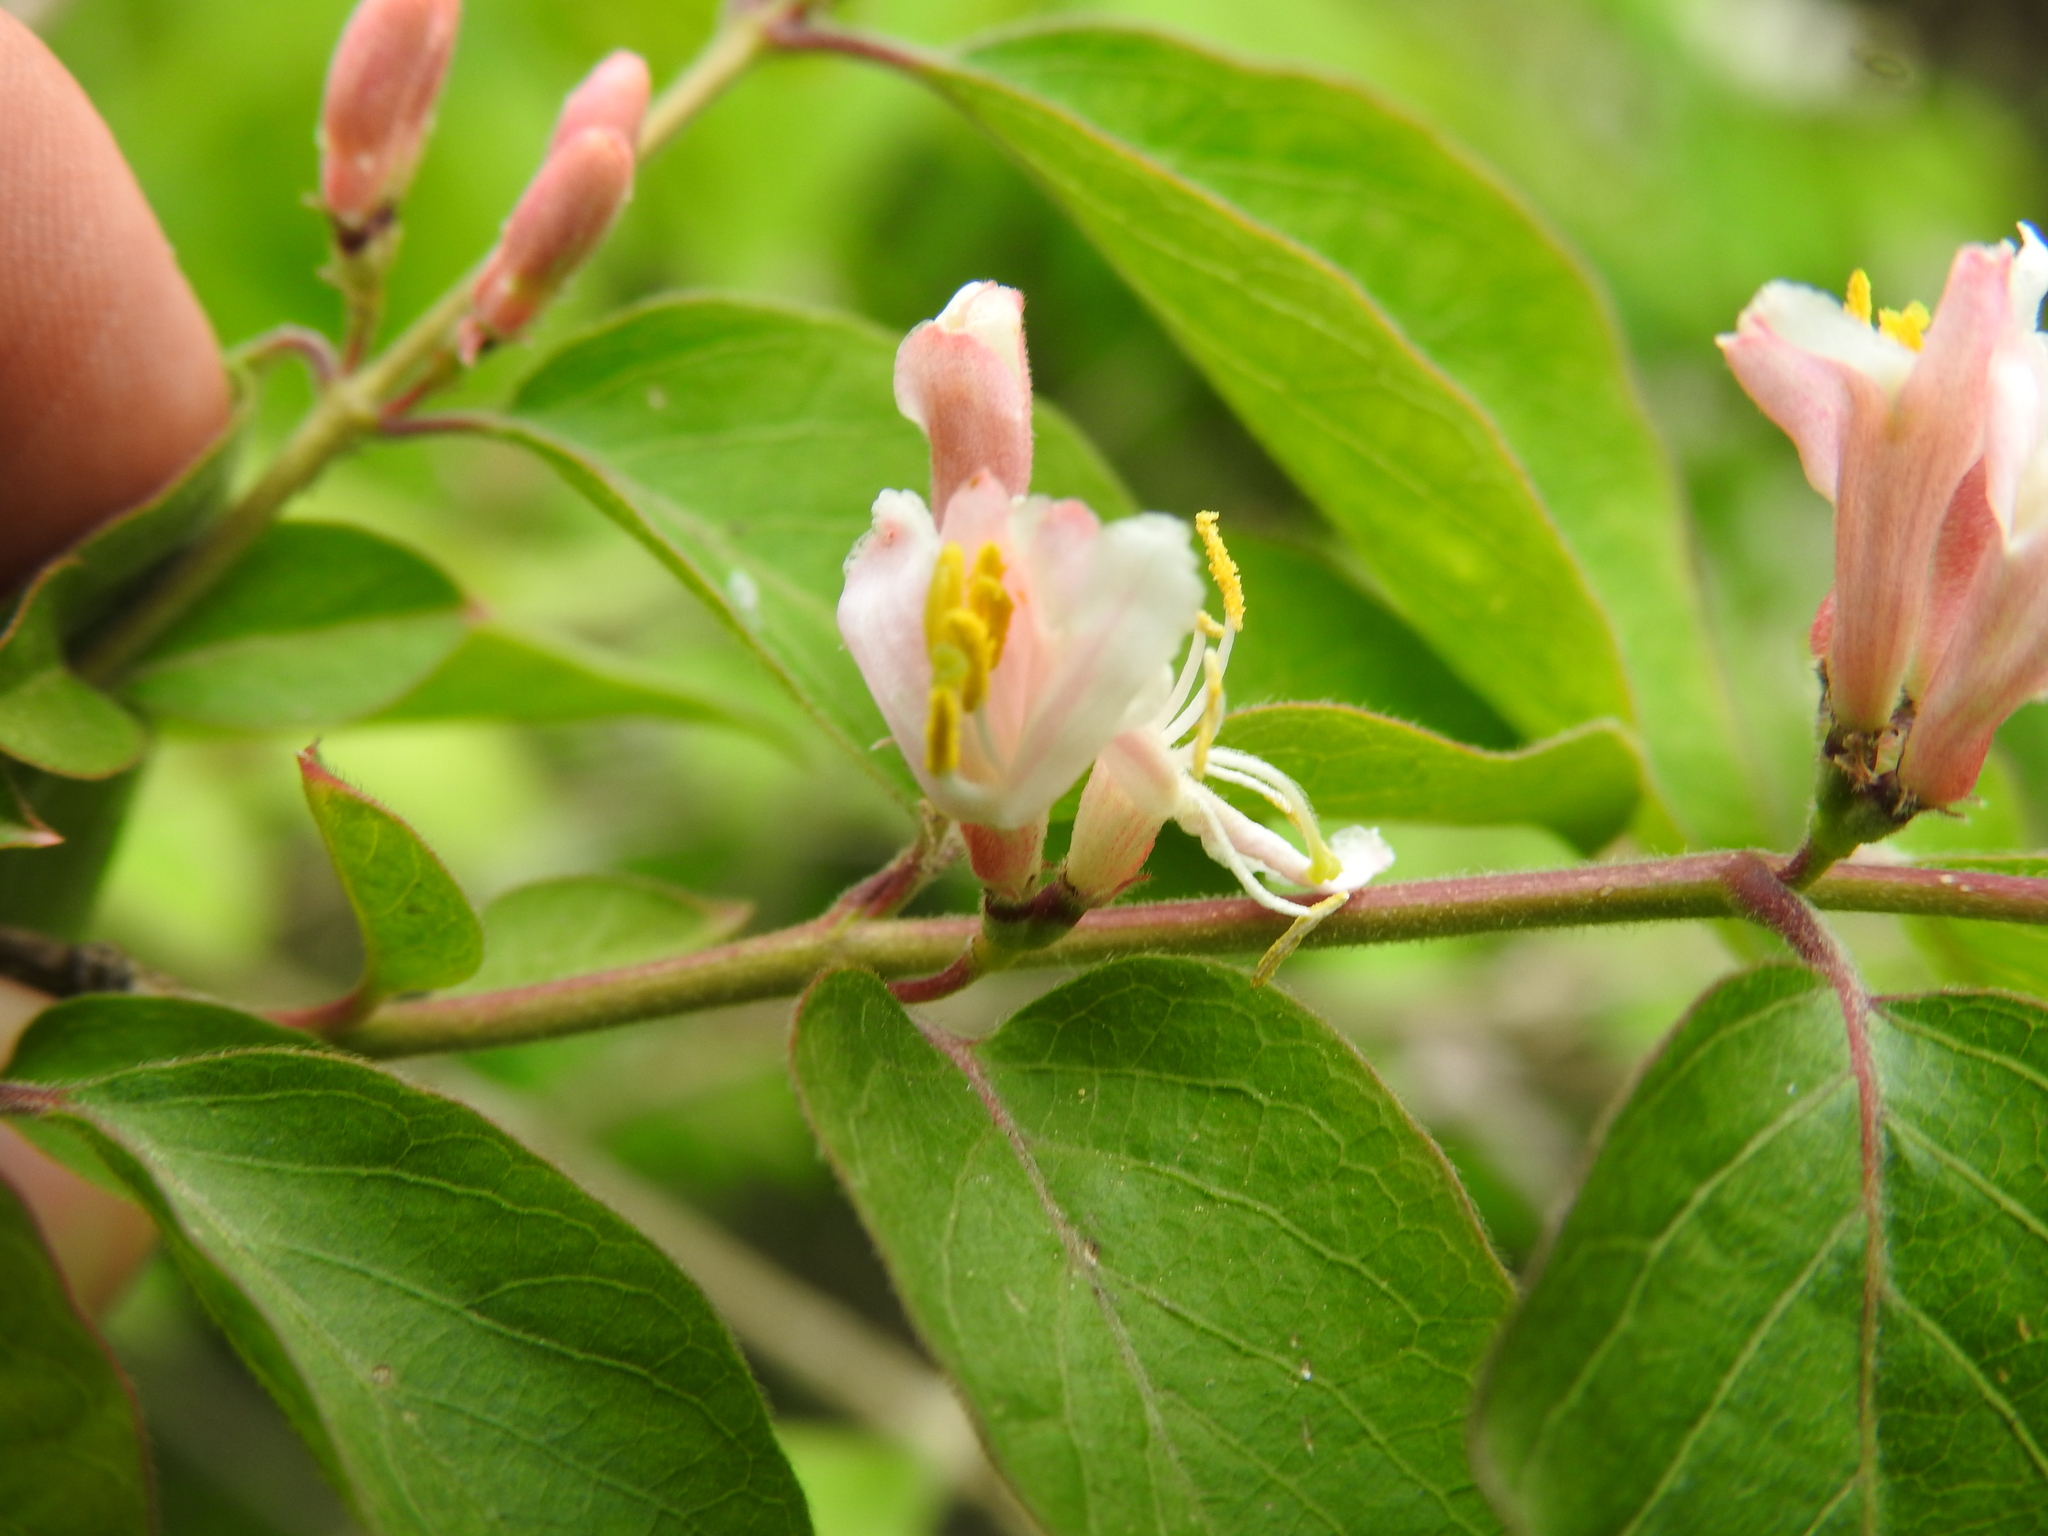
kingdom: Plantae
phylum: Tracheophyta
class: Magnoliopsida
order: Dipsacales
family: Caprifoliaceae
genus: Lonicera
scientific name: Lonicera maackii
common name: Amur honeysuckle
